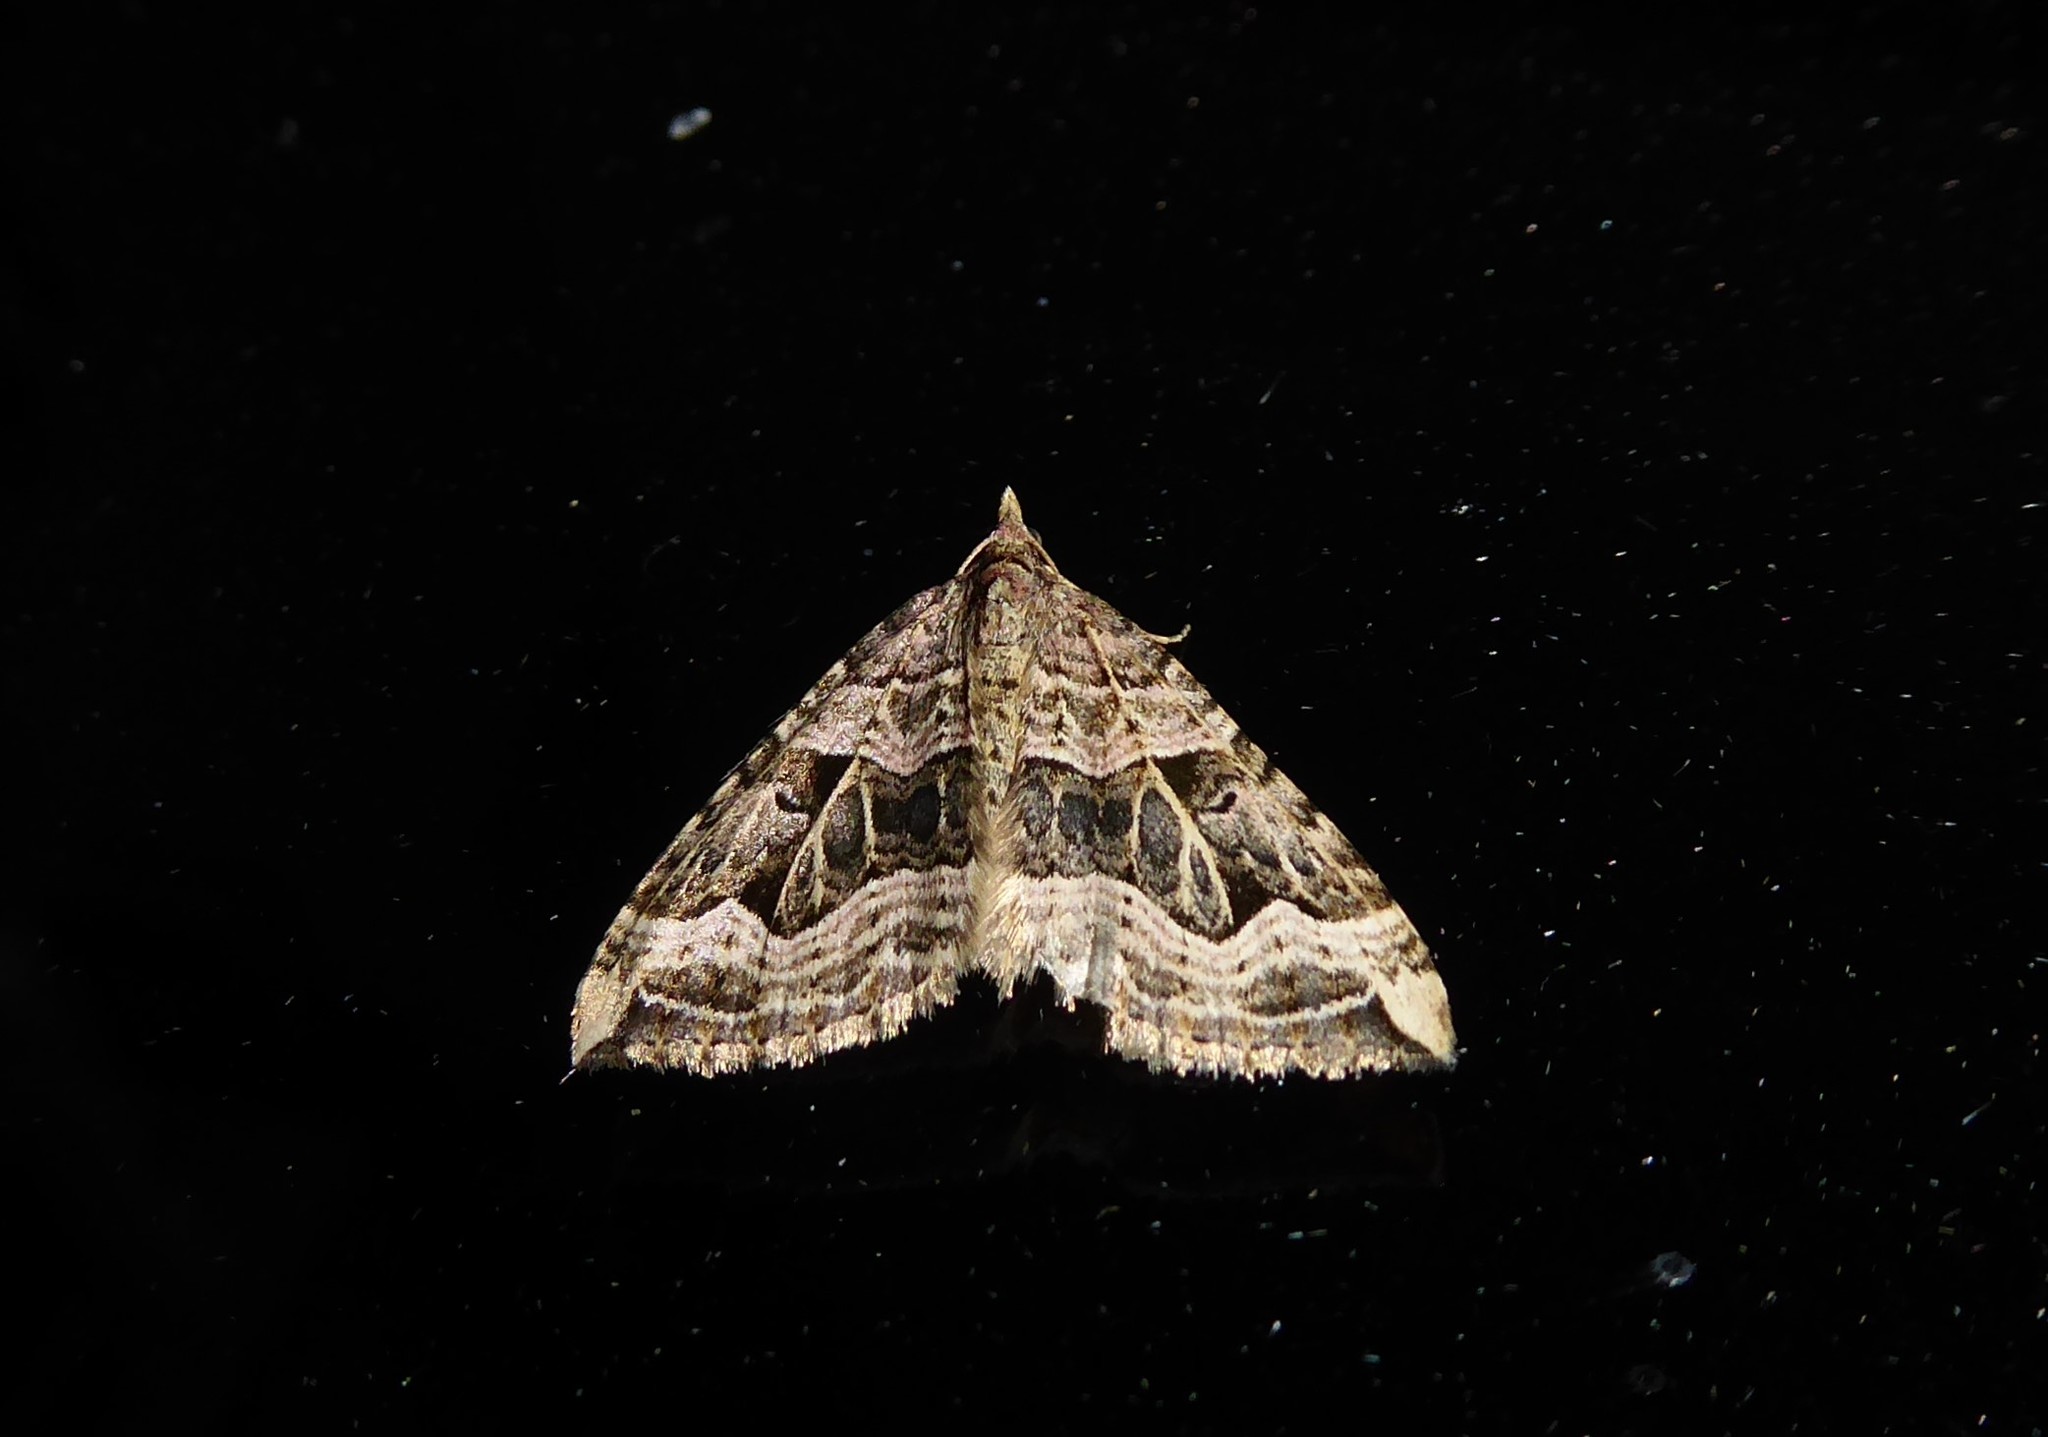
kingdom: Animalia
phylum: Arthropoda
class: Insecta
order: Lepidoptera
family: Geometridae
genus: Xanthorhoe
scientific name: Xanthorhoe semifissata
